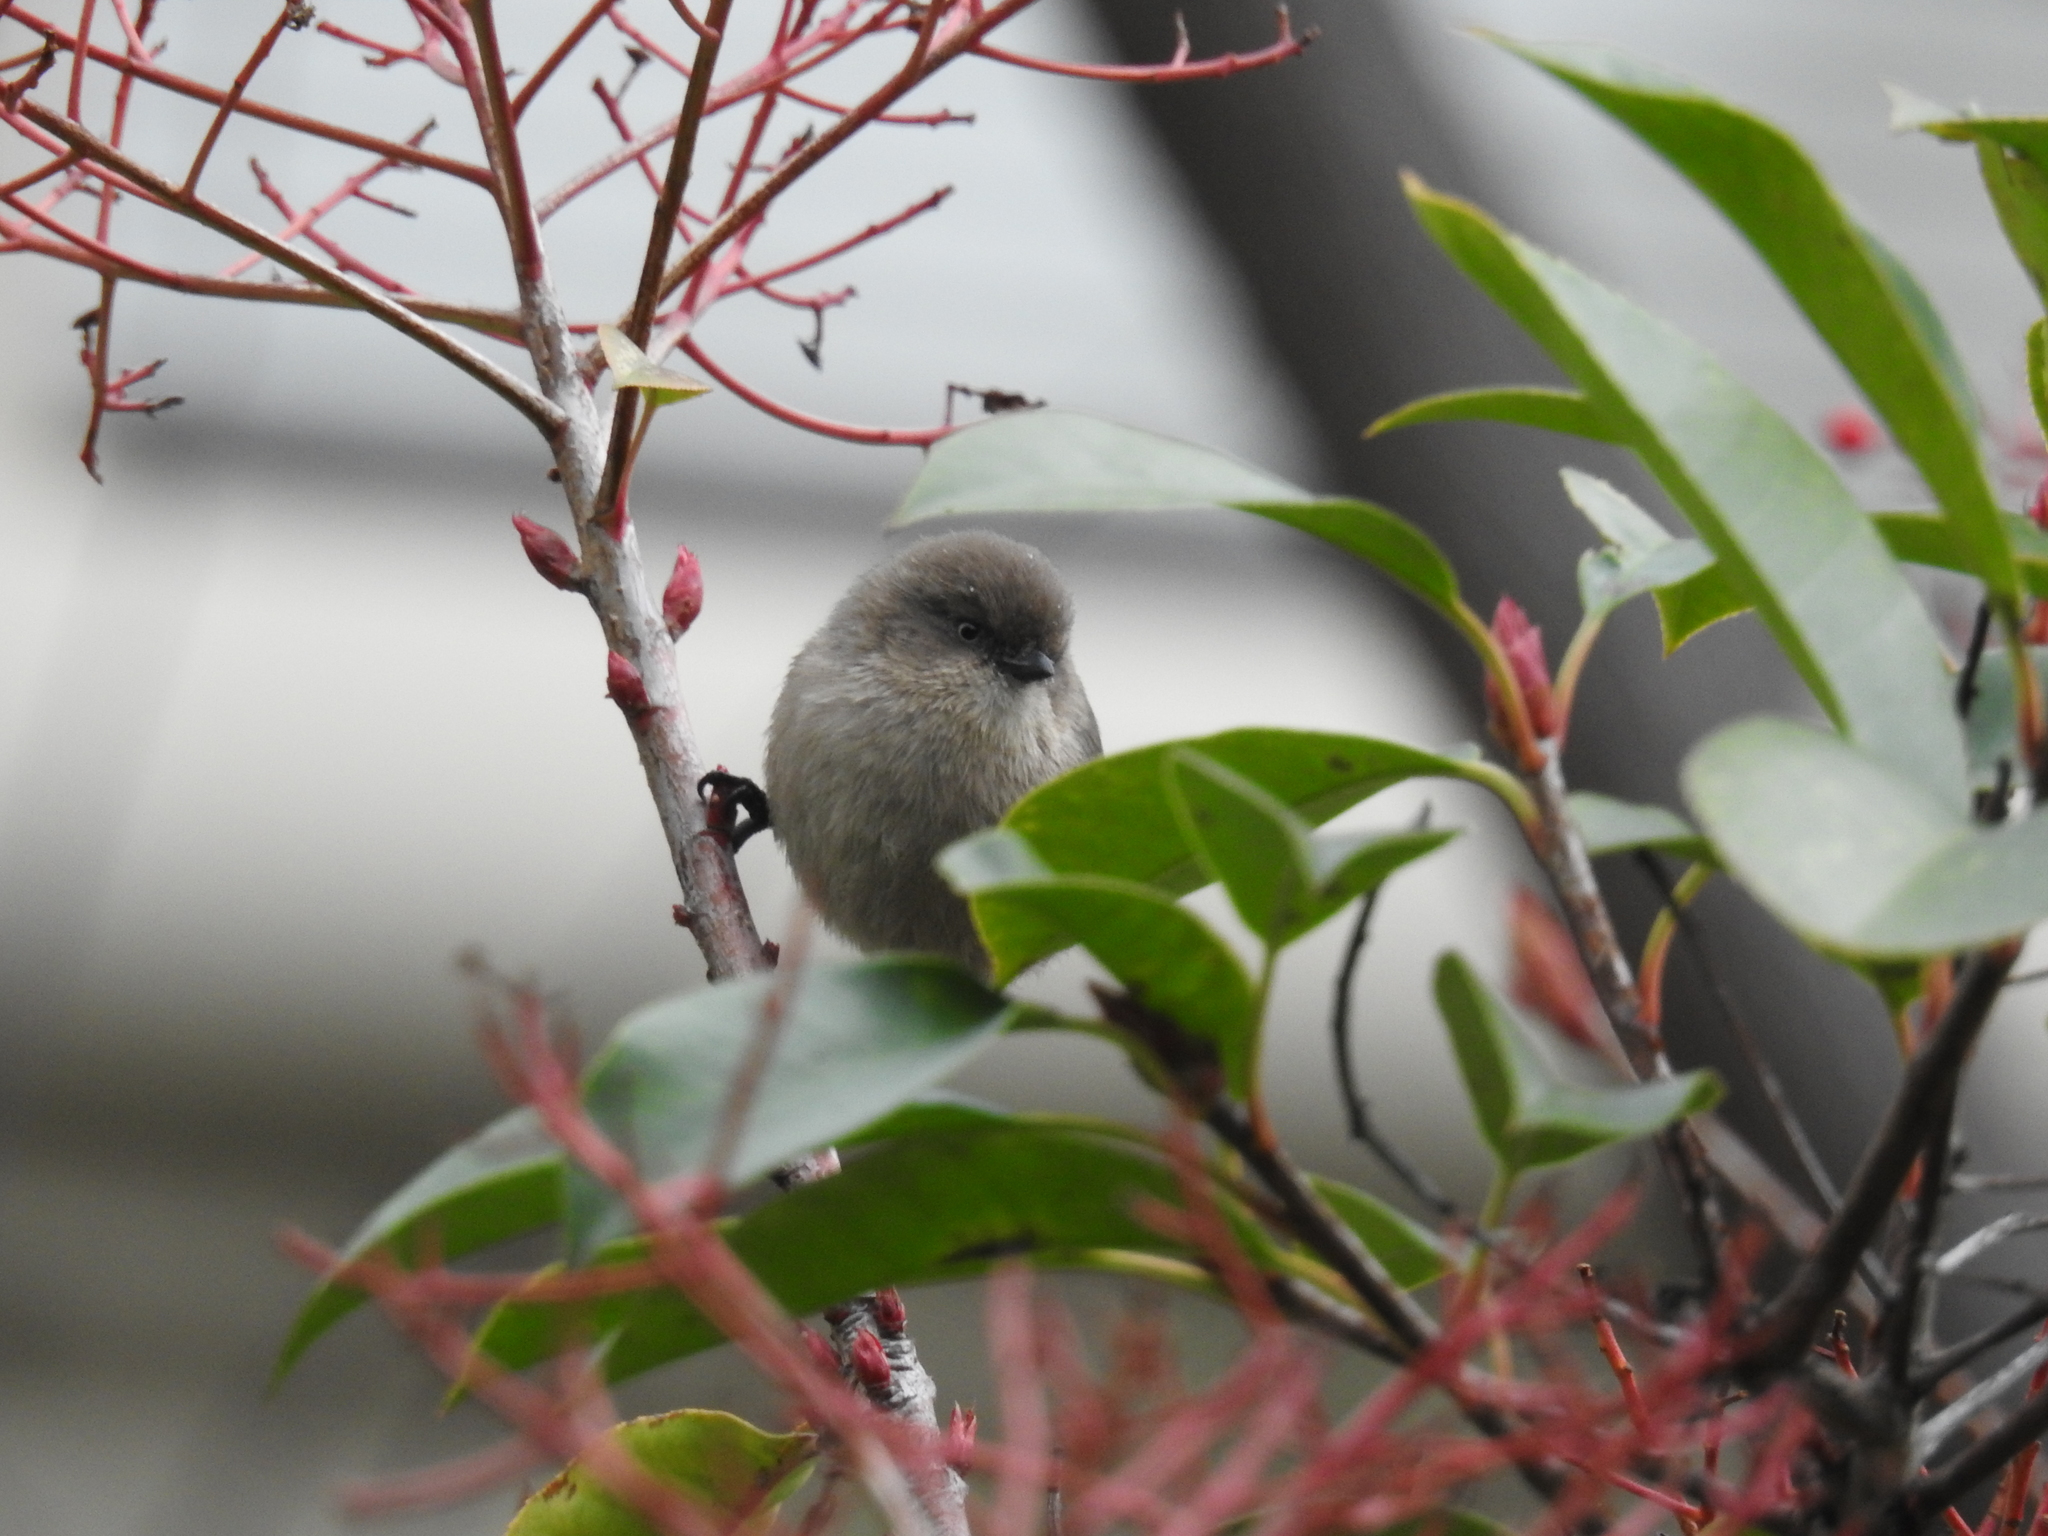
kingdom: Animalia
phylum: Chordata
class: Aves
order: Passeriformes
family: Aegithalidae
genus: Psaltriparus
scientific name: Psaltriparus minimus
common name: American bushtit
